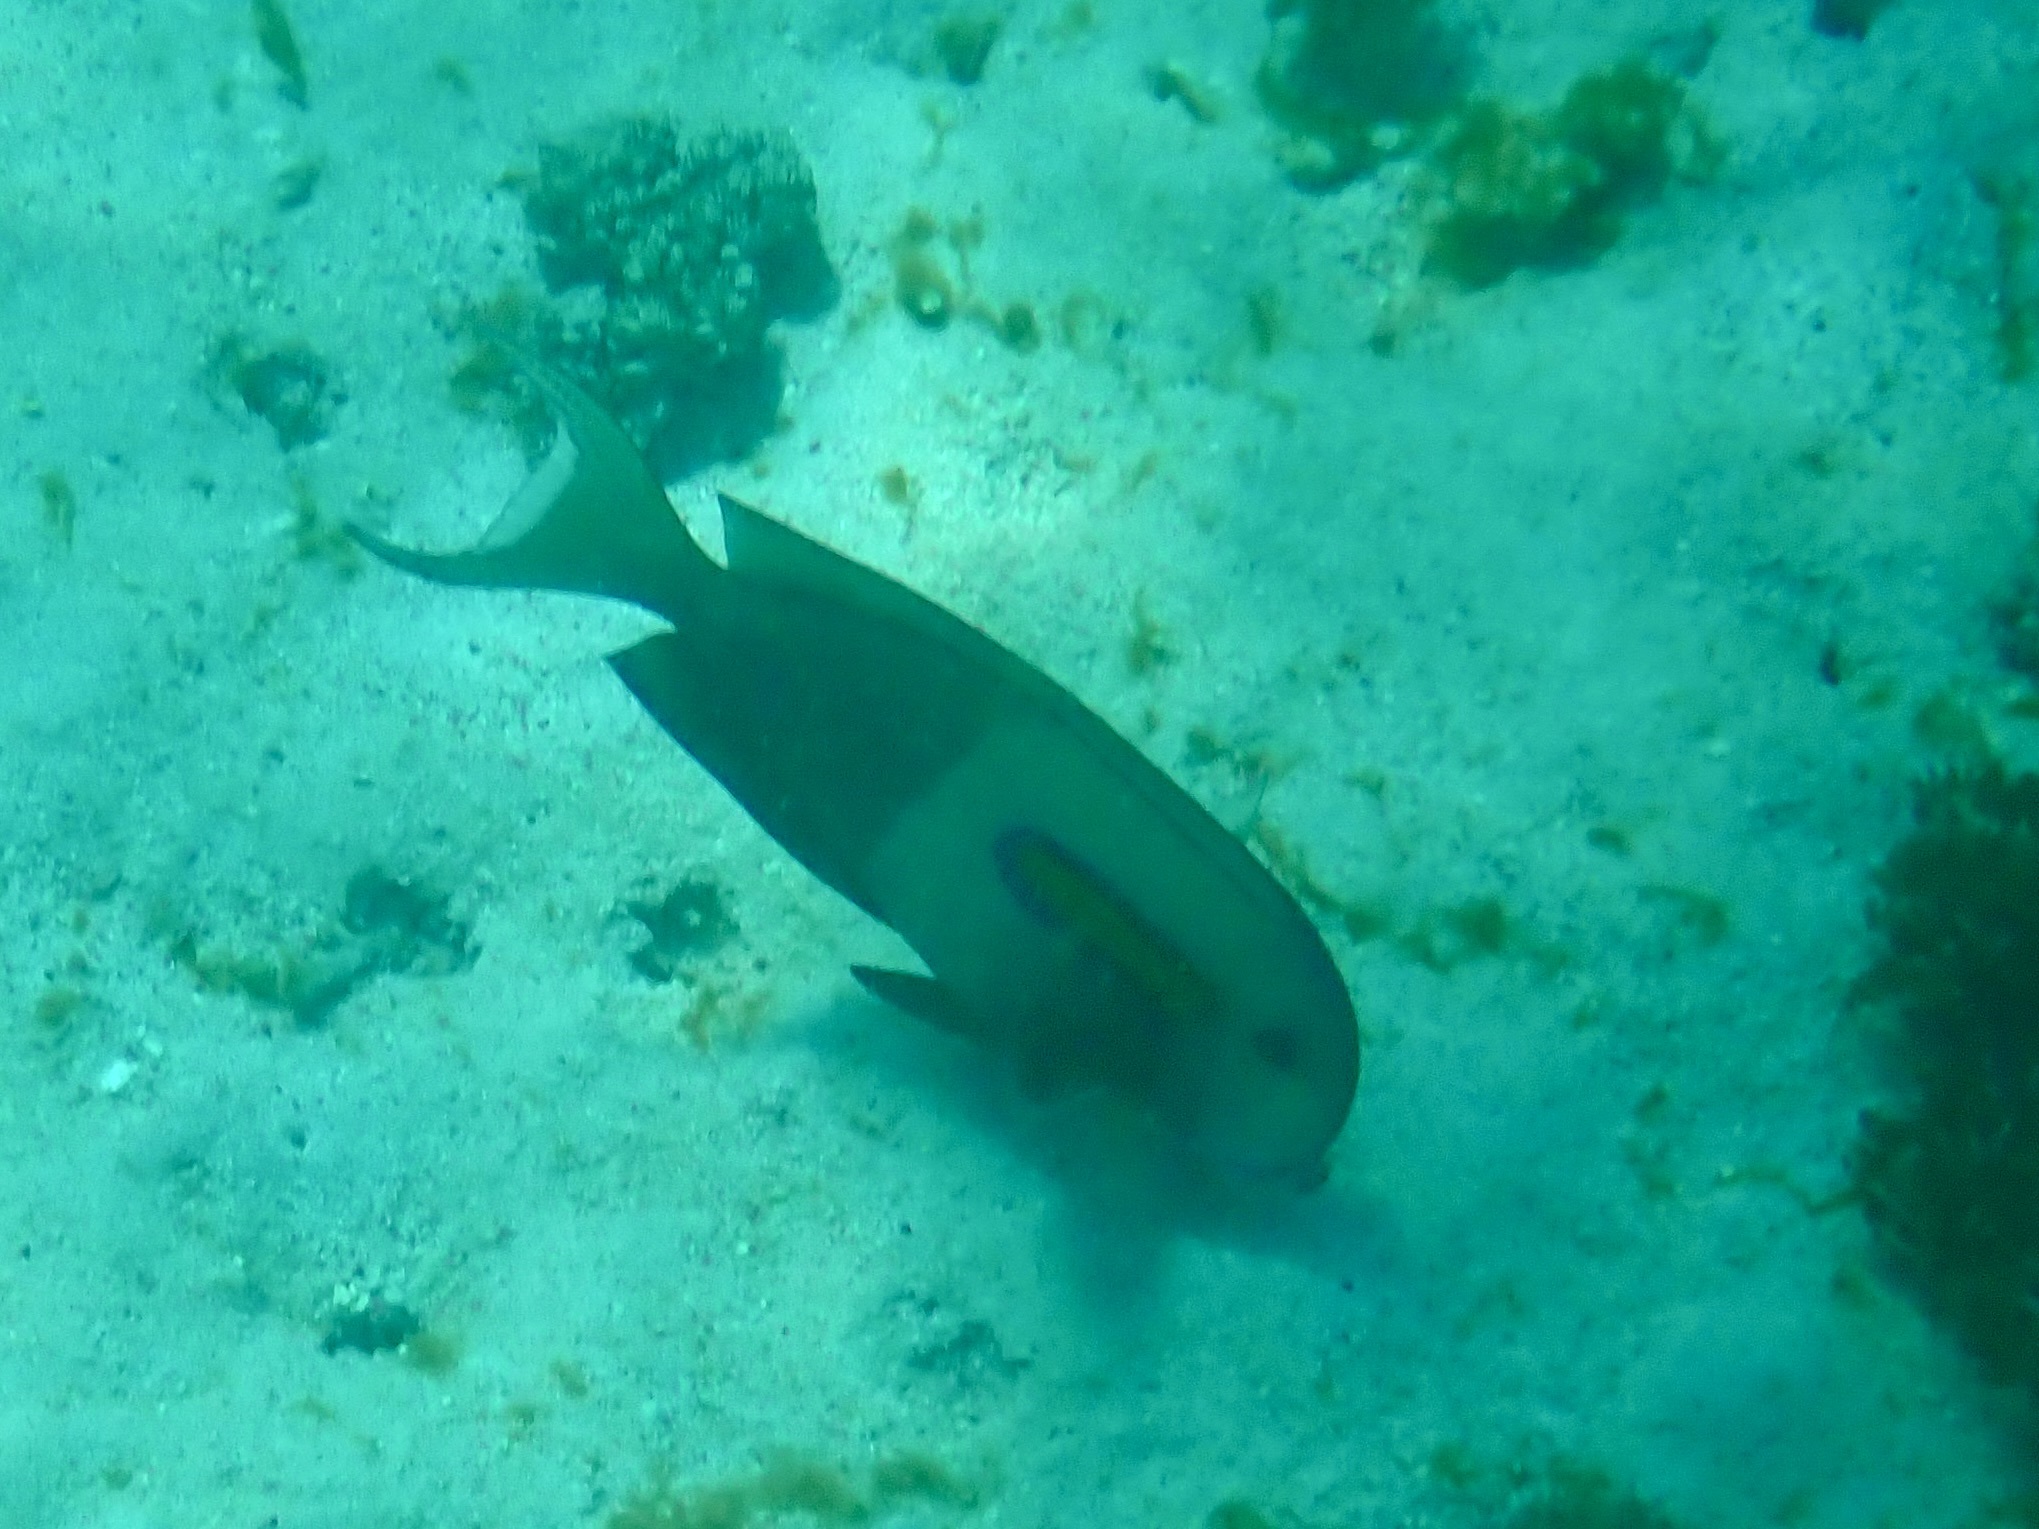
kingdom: Animalia
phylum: Chordata
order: Perciformes
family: Acanthuridae
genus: Acanthurus
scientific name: Acanthurus olivaceus
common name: Gendarme fish
